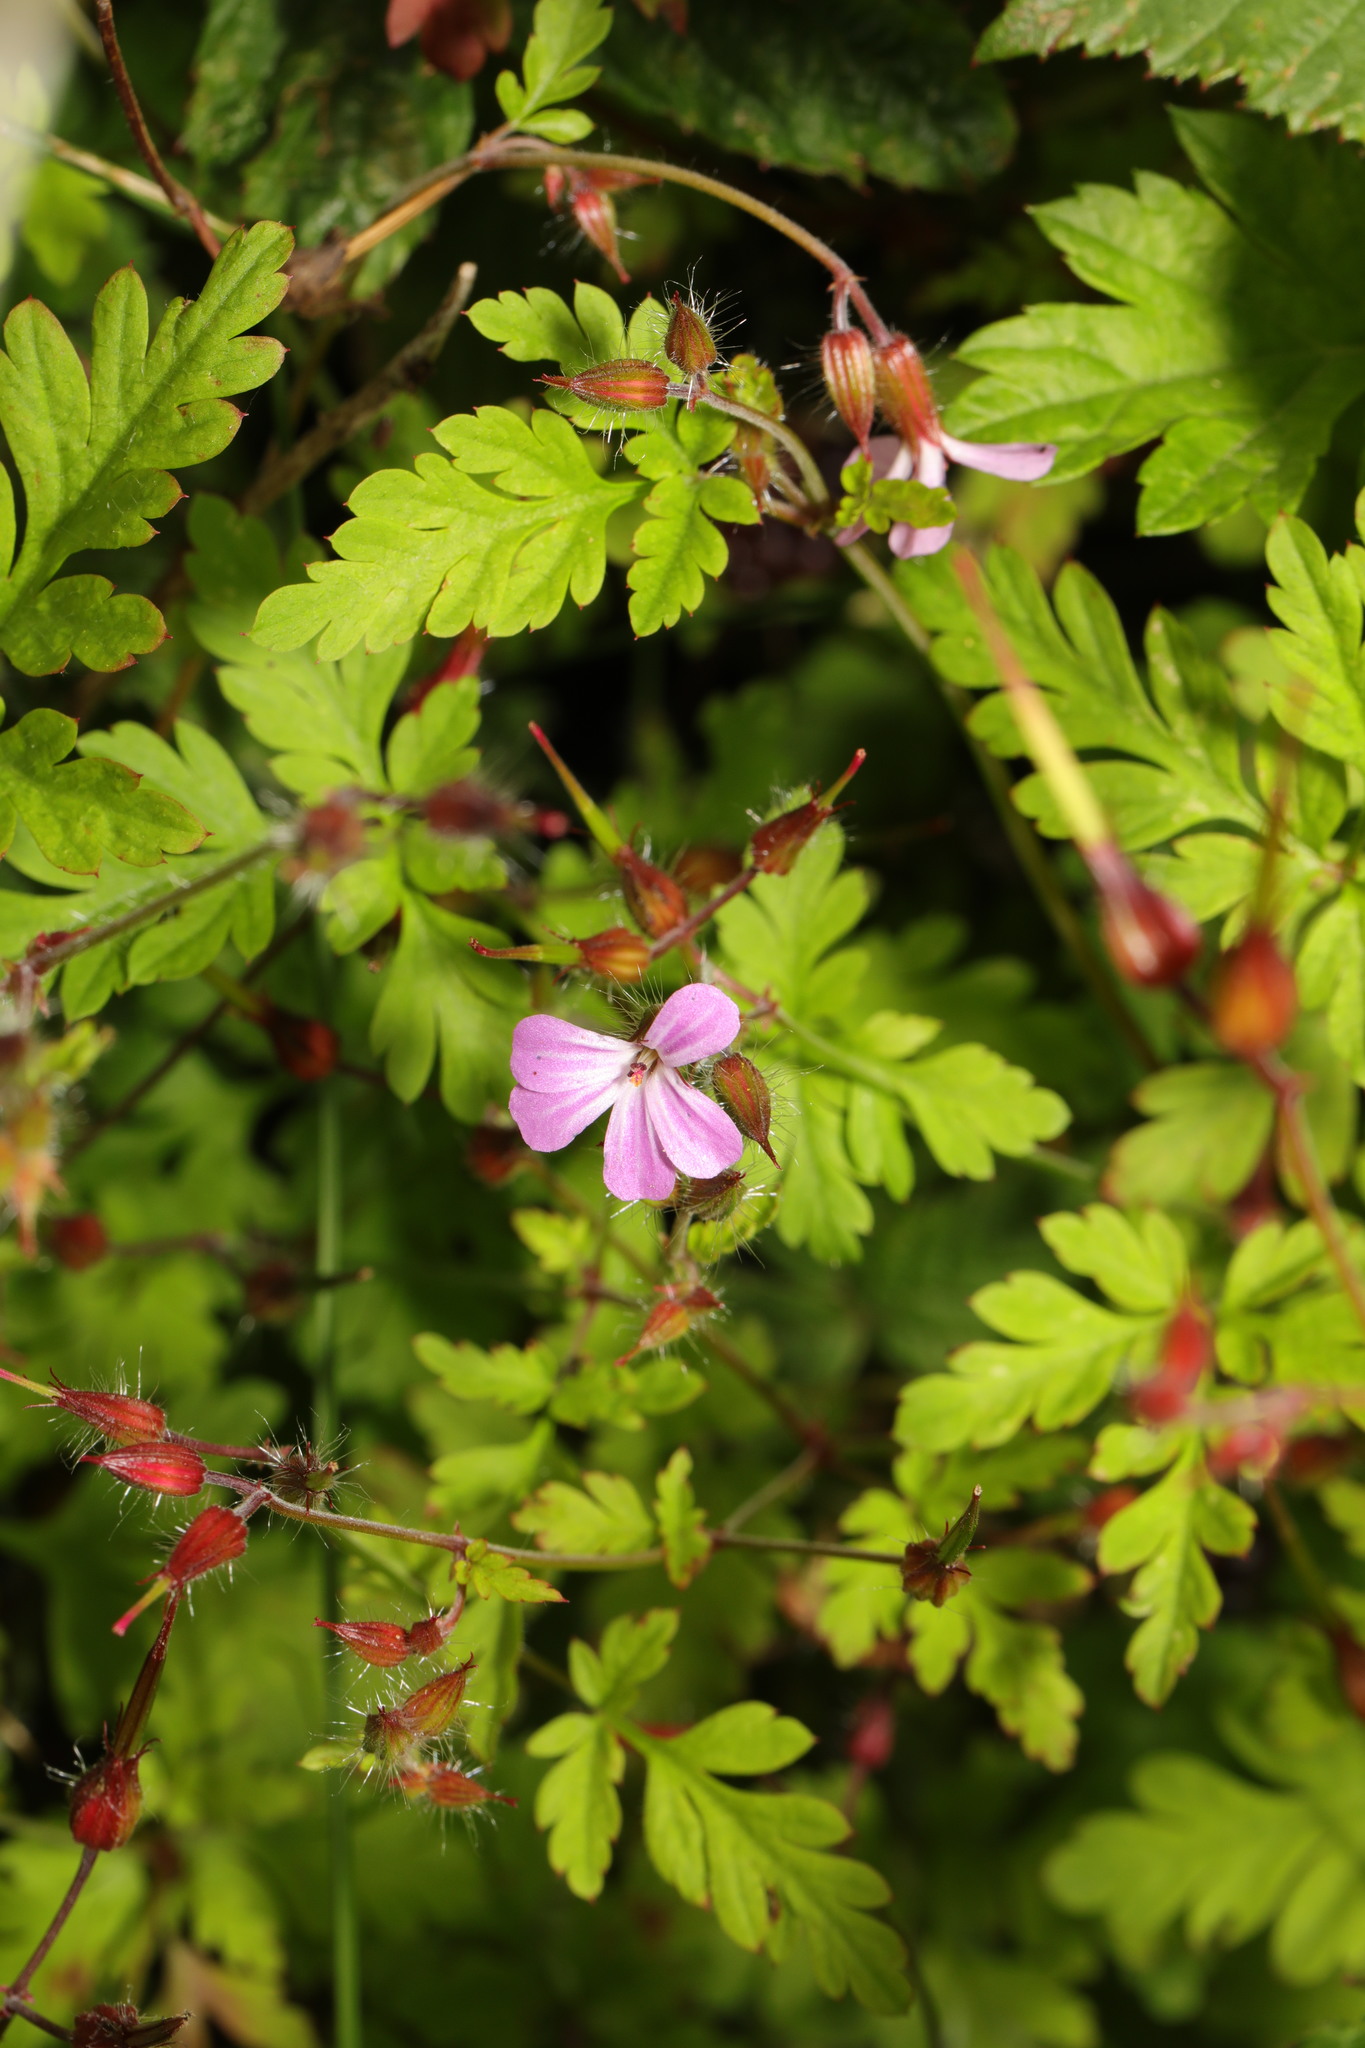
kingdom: Plantae
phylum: Tracheophyta
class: Magnoliopsida
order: Geraniales
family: Geraniaceae
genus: Geranium
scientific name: Geranium robertianum
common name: Herb-robert
